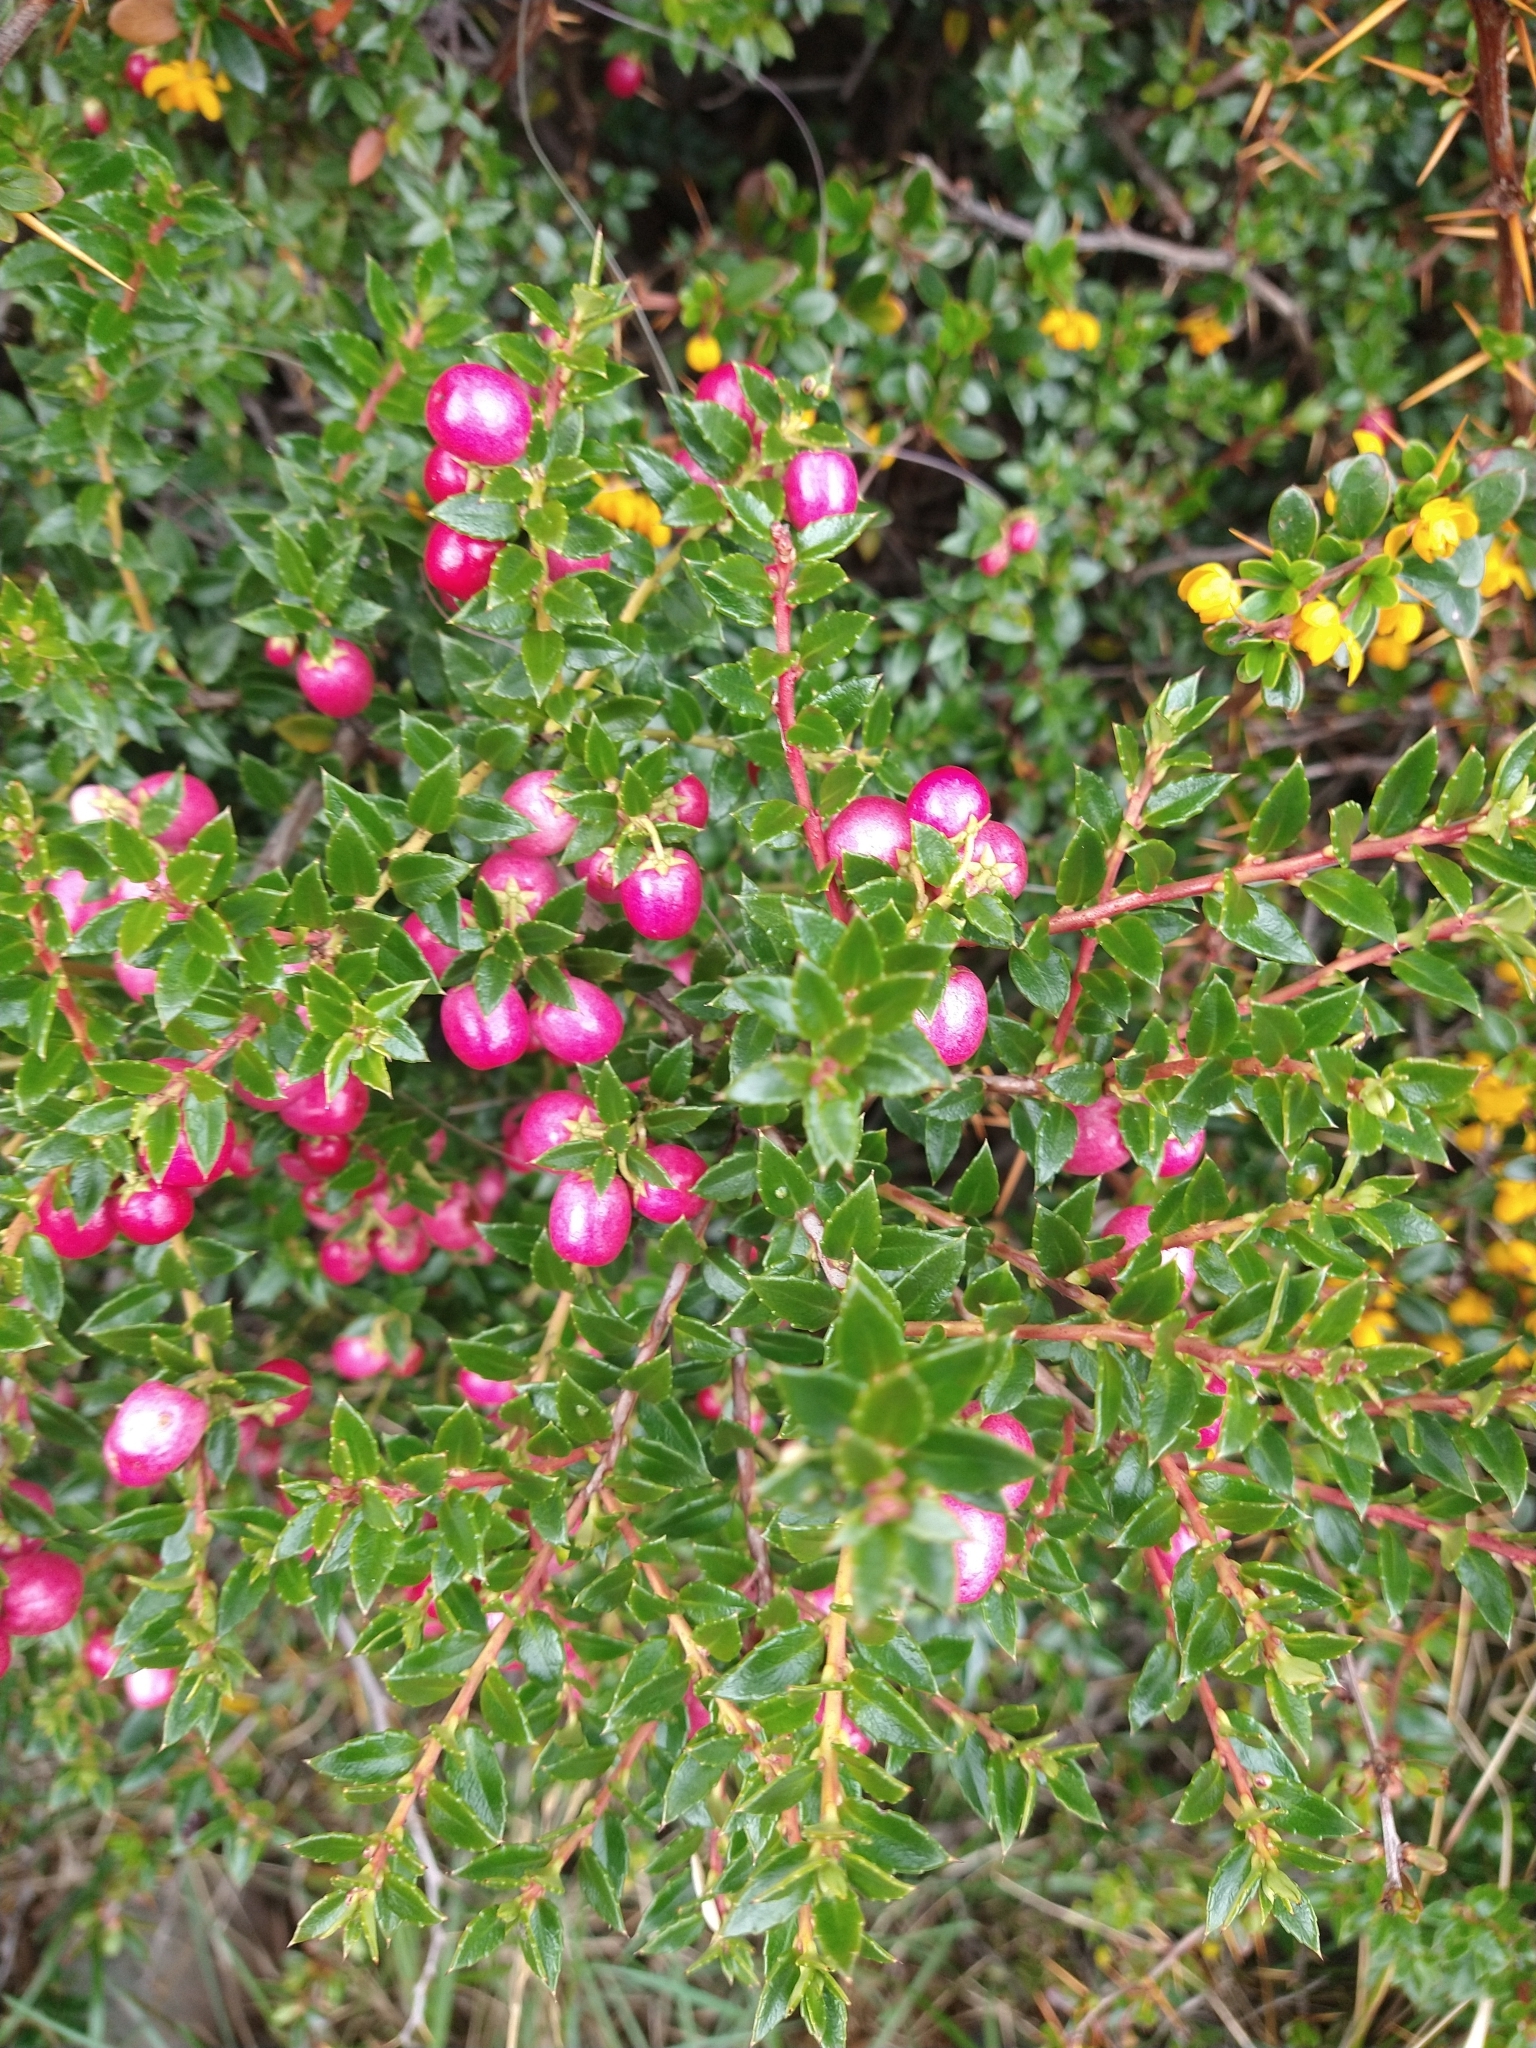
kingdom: Plantae
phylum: Tracheophyta
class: Magnoliopsida
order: Ericales
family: Ericaceae
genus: Gaultheria
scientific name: Gaultheria mucronata
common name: Prickly heath
